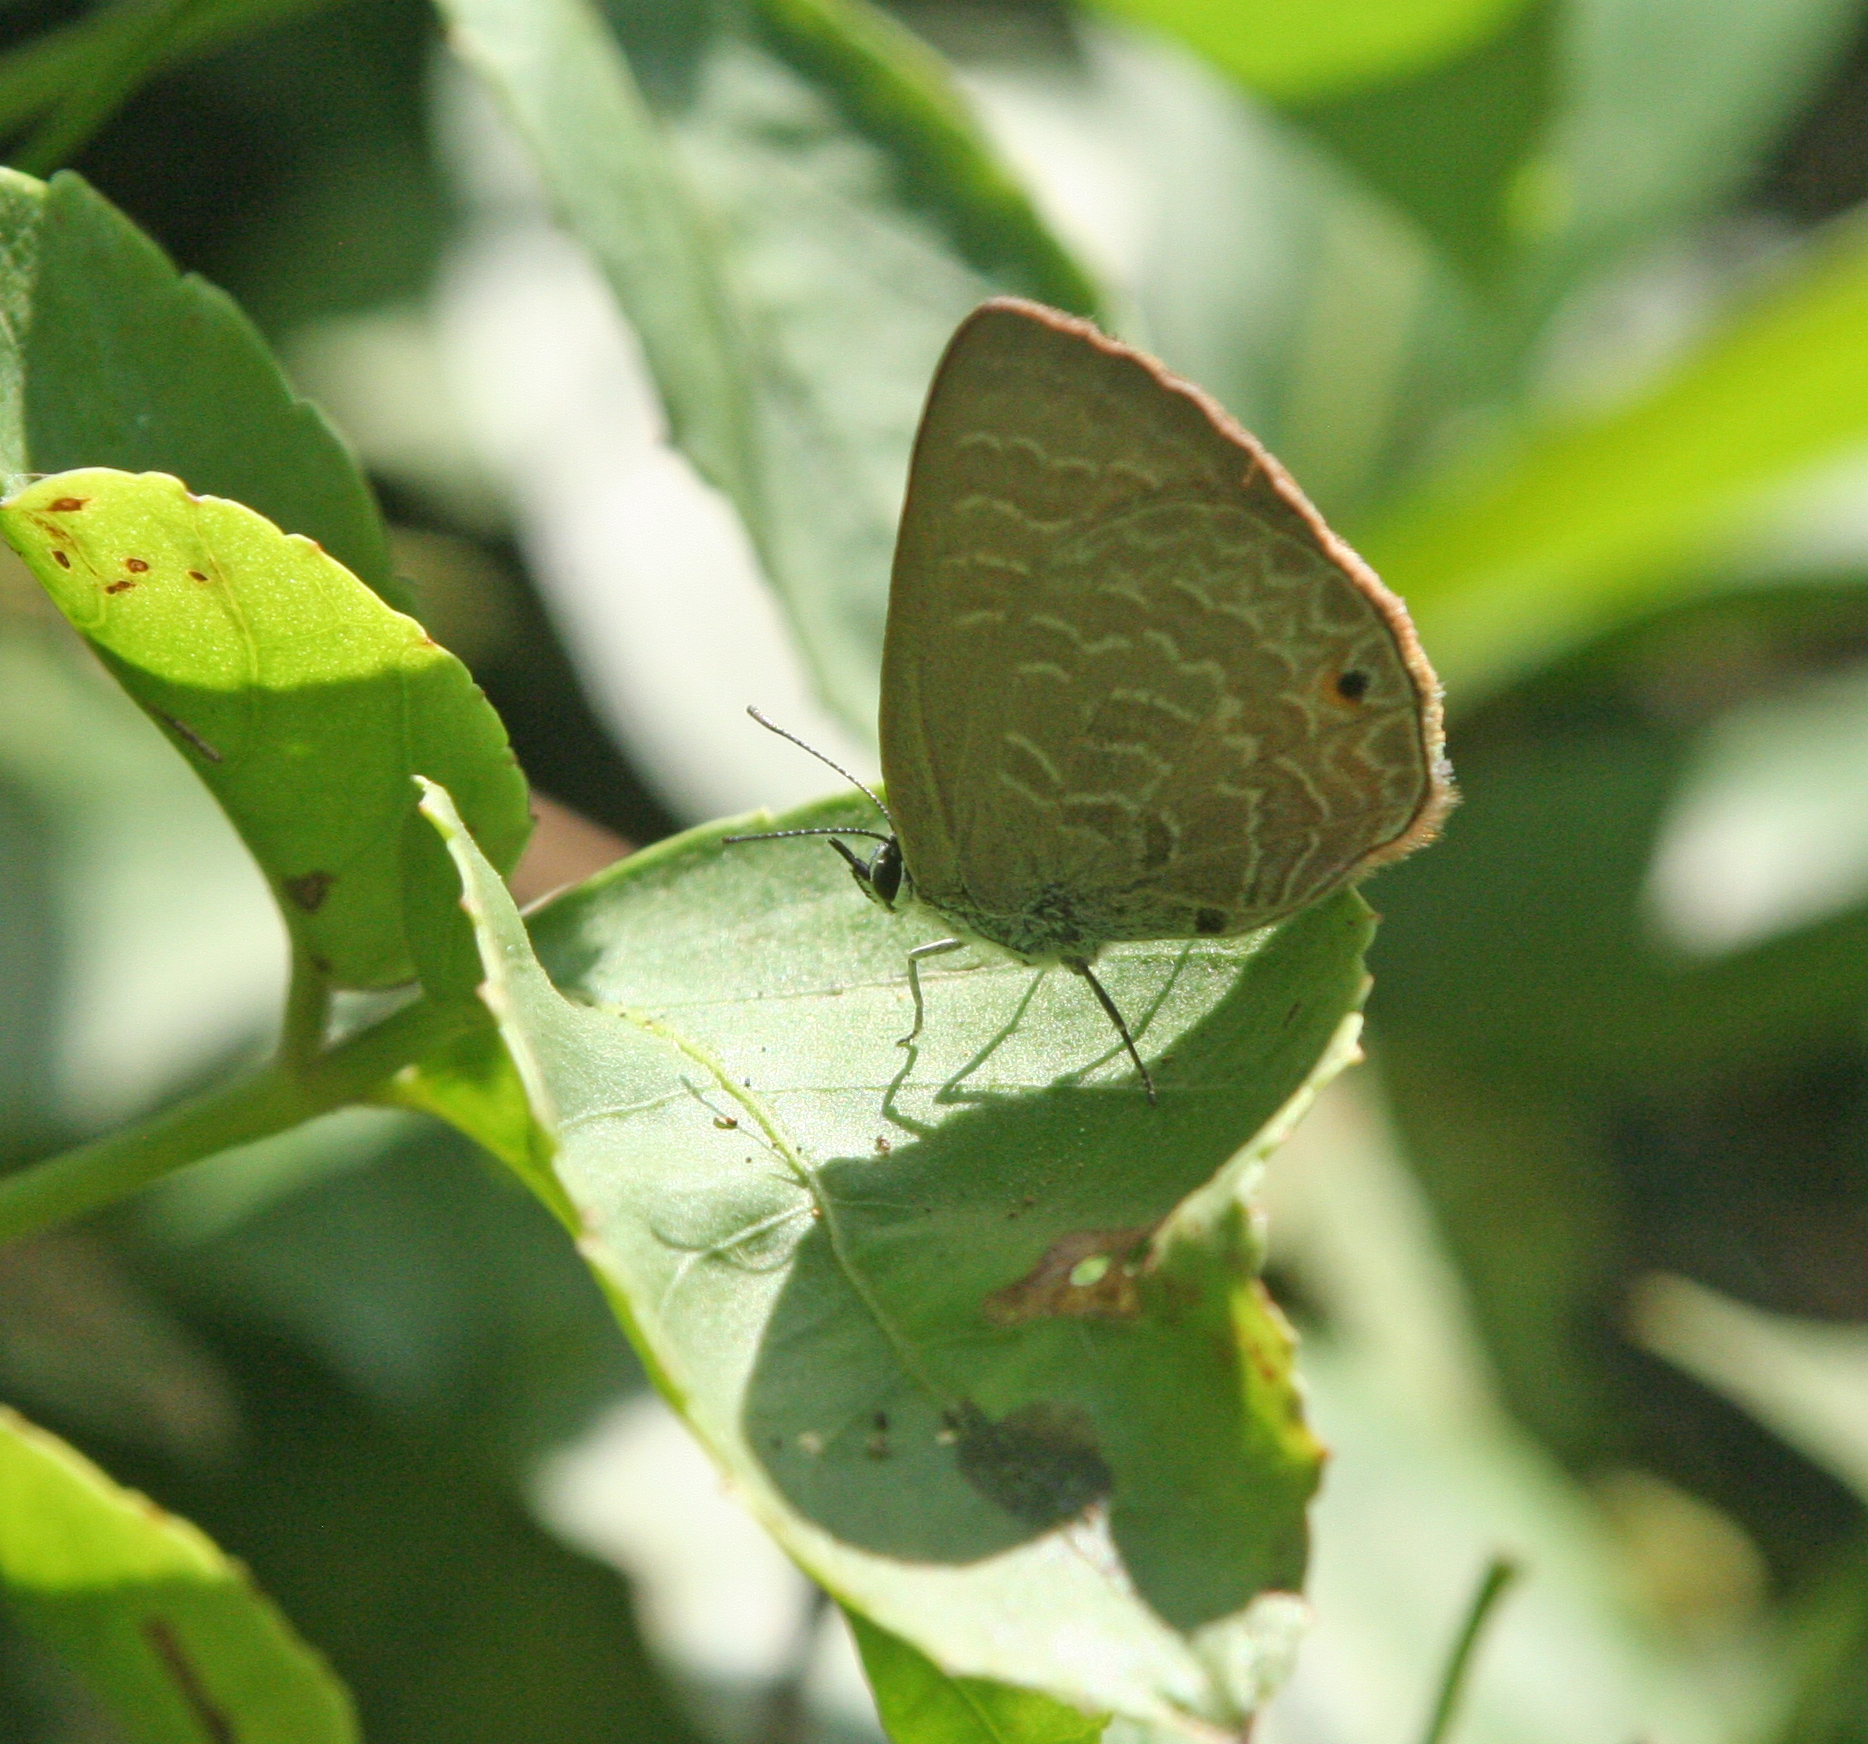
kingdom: Animalia
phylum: Arthropoda
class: Insecta
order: Lepidoptera
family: Lycaenidae
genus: Anthene
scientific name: Anthene emolus
